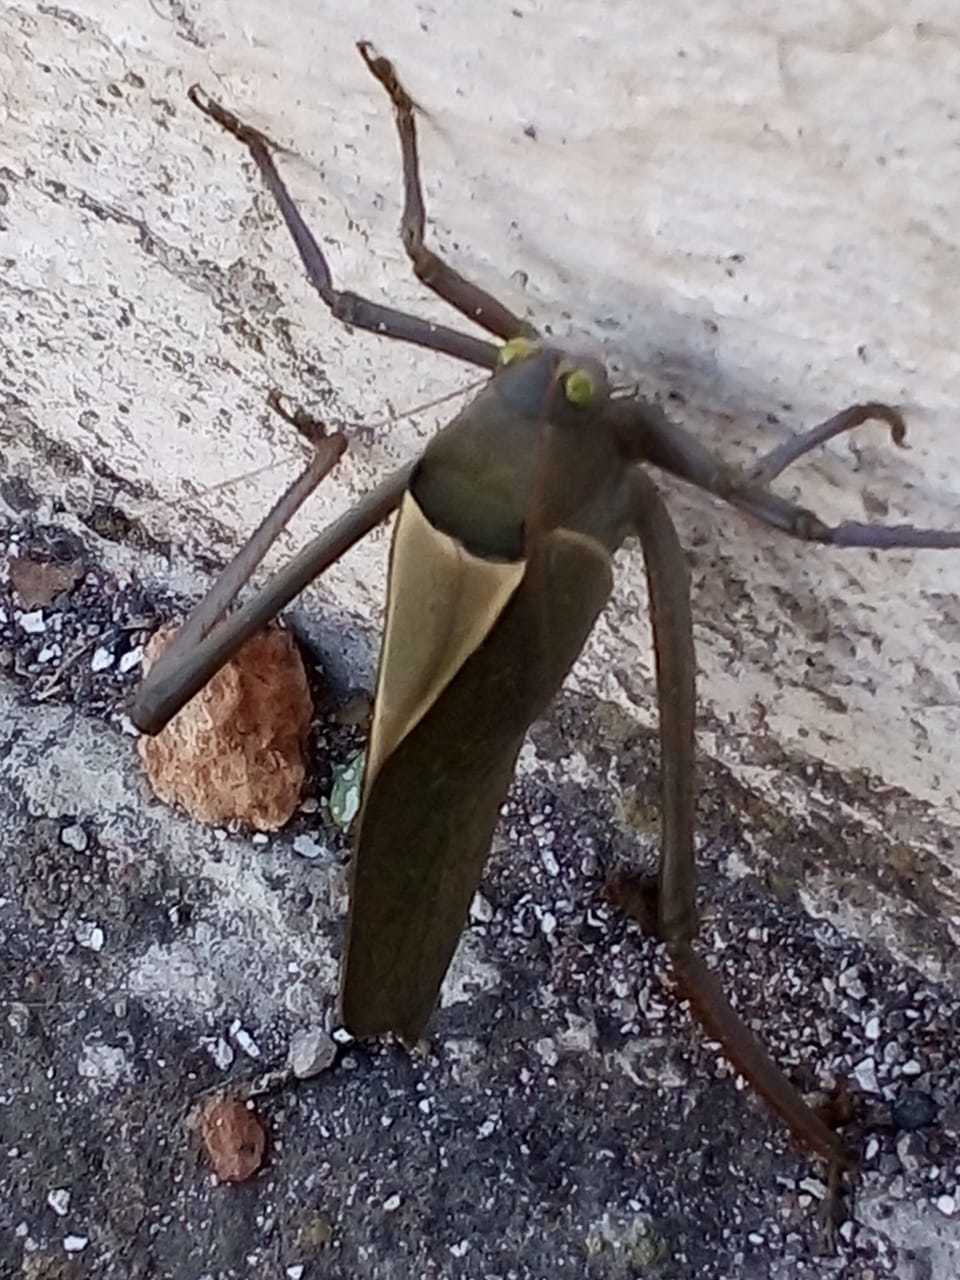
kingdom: Animalia
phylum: Arthropoda
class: Insecta
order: Orthoptera
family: Tettigoniidae
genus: Stilpnochlora
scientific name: Stilpnochlora azteca
